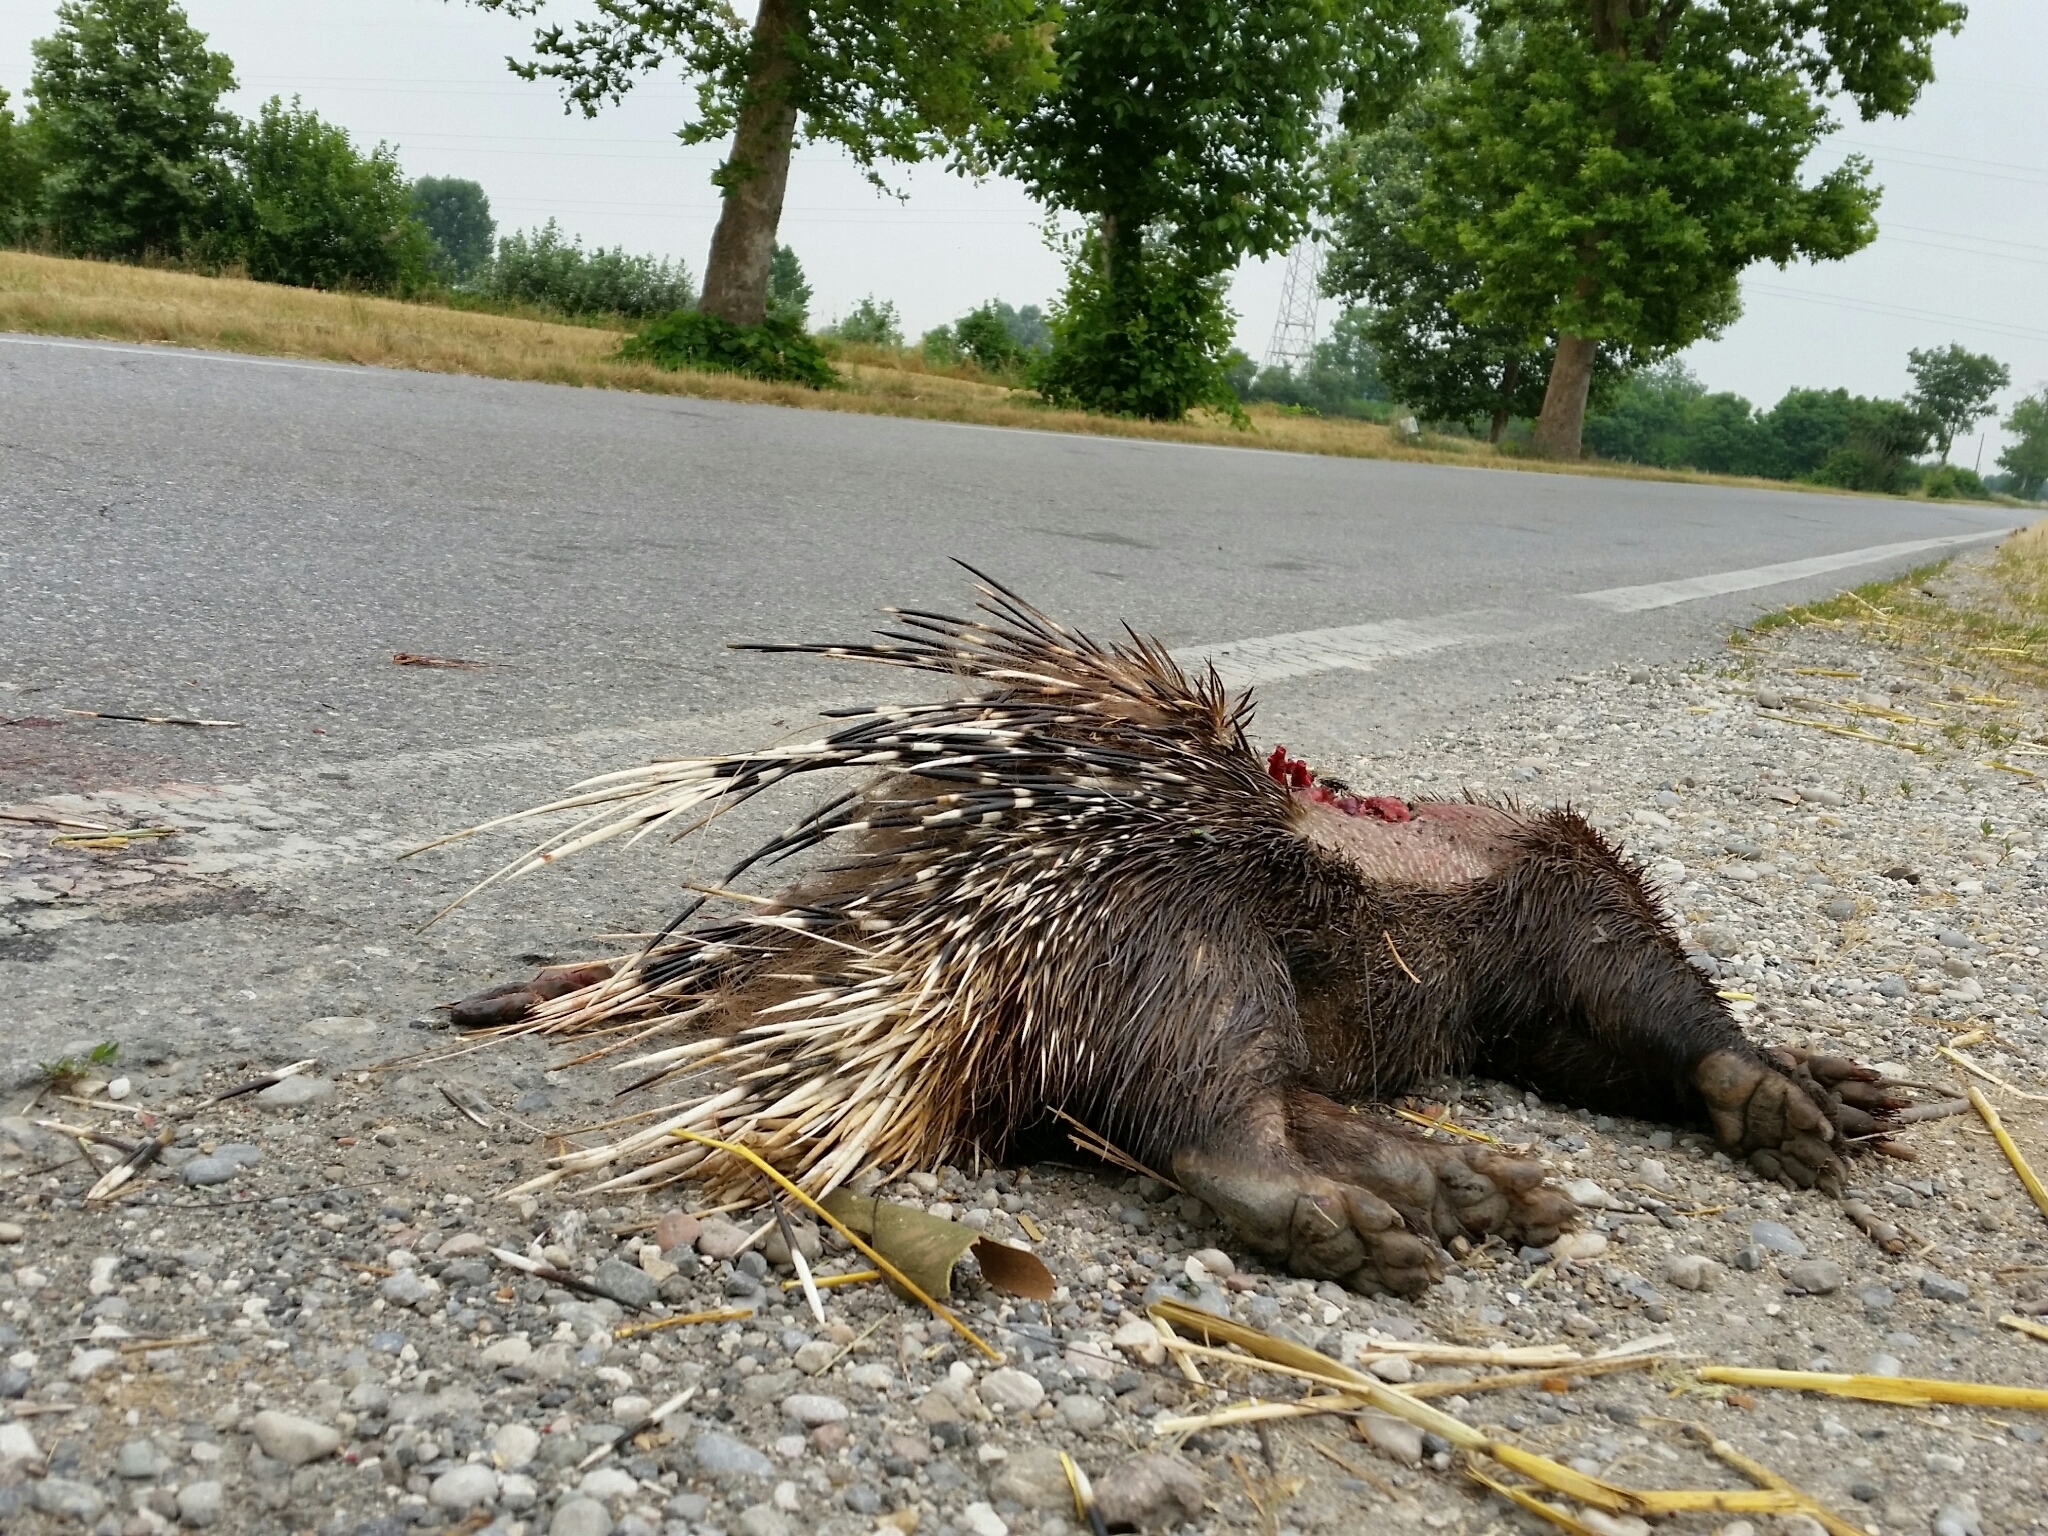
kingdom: Animalia
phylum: Chordata
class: Mammalia
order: Rodentia
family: Hystricidae
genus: Hystrix
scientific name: Hystrix cristata
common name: Crested porcupine
